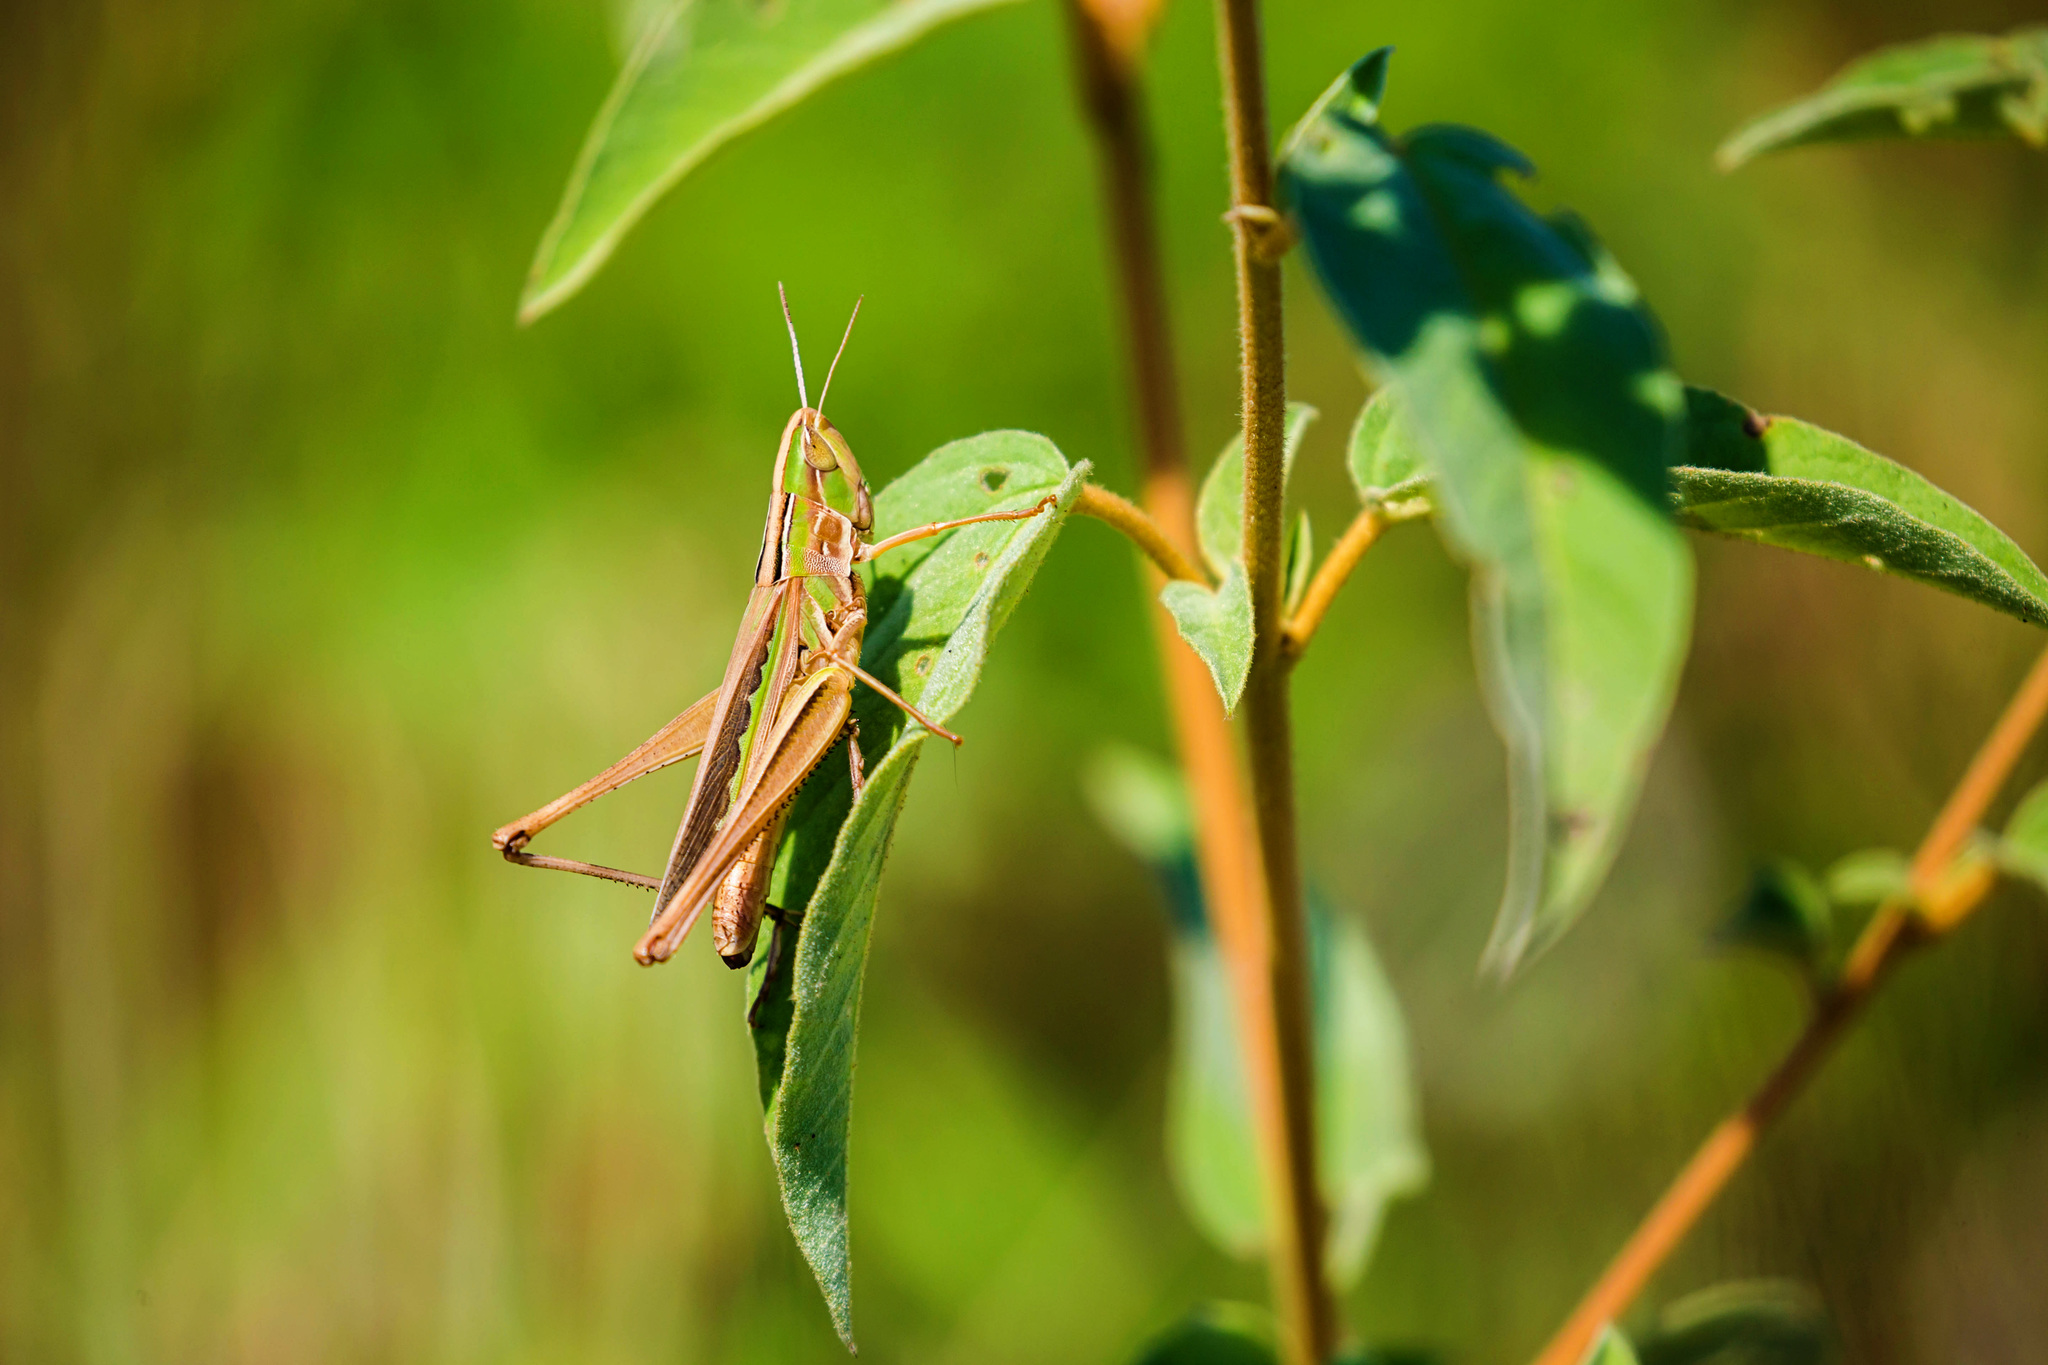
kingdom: Animalia
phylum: Arthropoda
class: Insecta
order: Orthoptera
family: Acrididae
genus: Syrbula
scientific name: Syrbula admirabilis
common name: Handsome grasshopper
